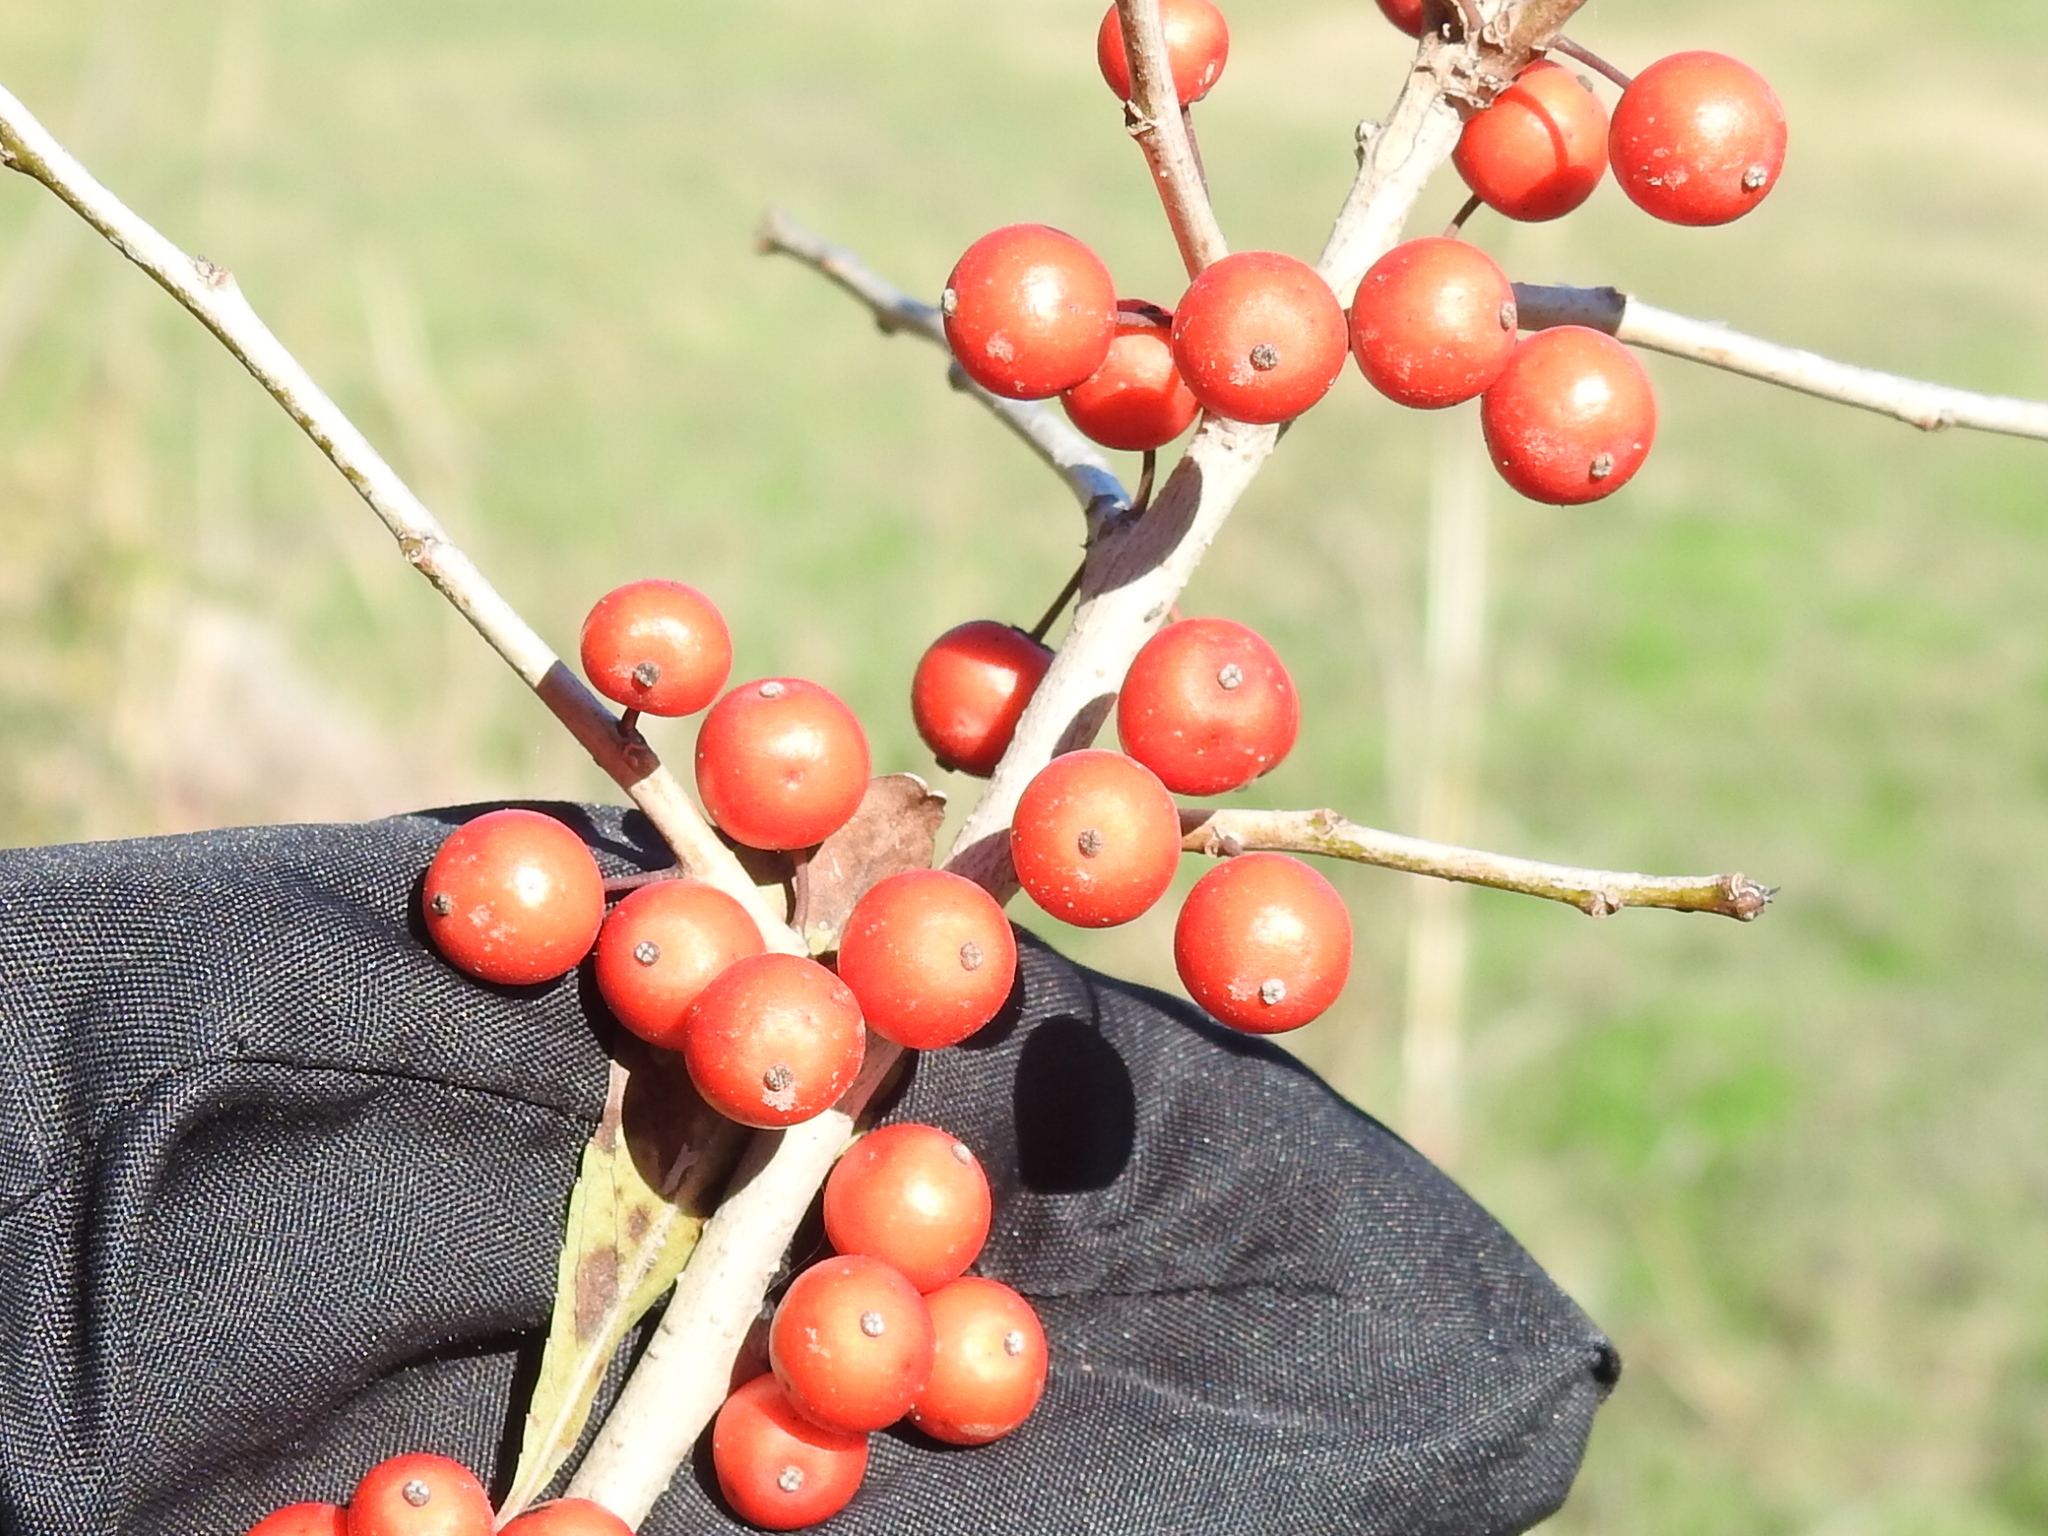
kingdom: Plantae
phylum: Tracheophyta
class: Magnoliopsida
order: Aquifoliales
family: Aquifoliaceae
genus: Ilex
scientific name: Ilex decidua
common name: Possum-haw
